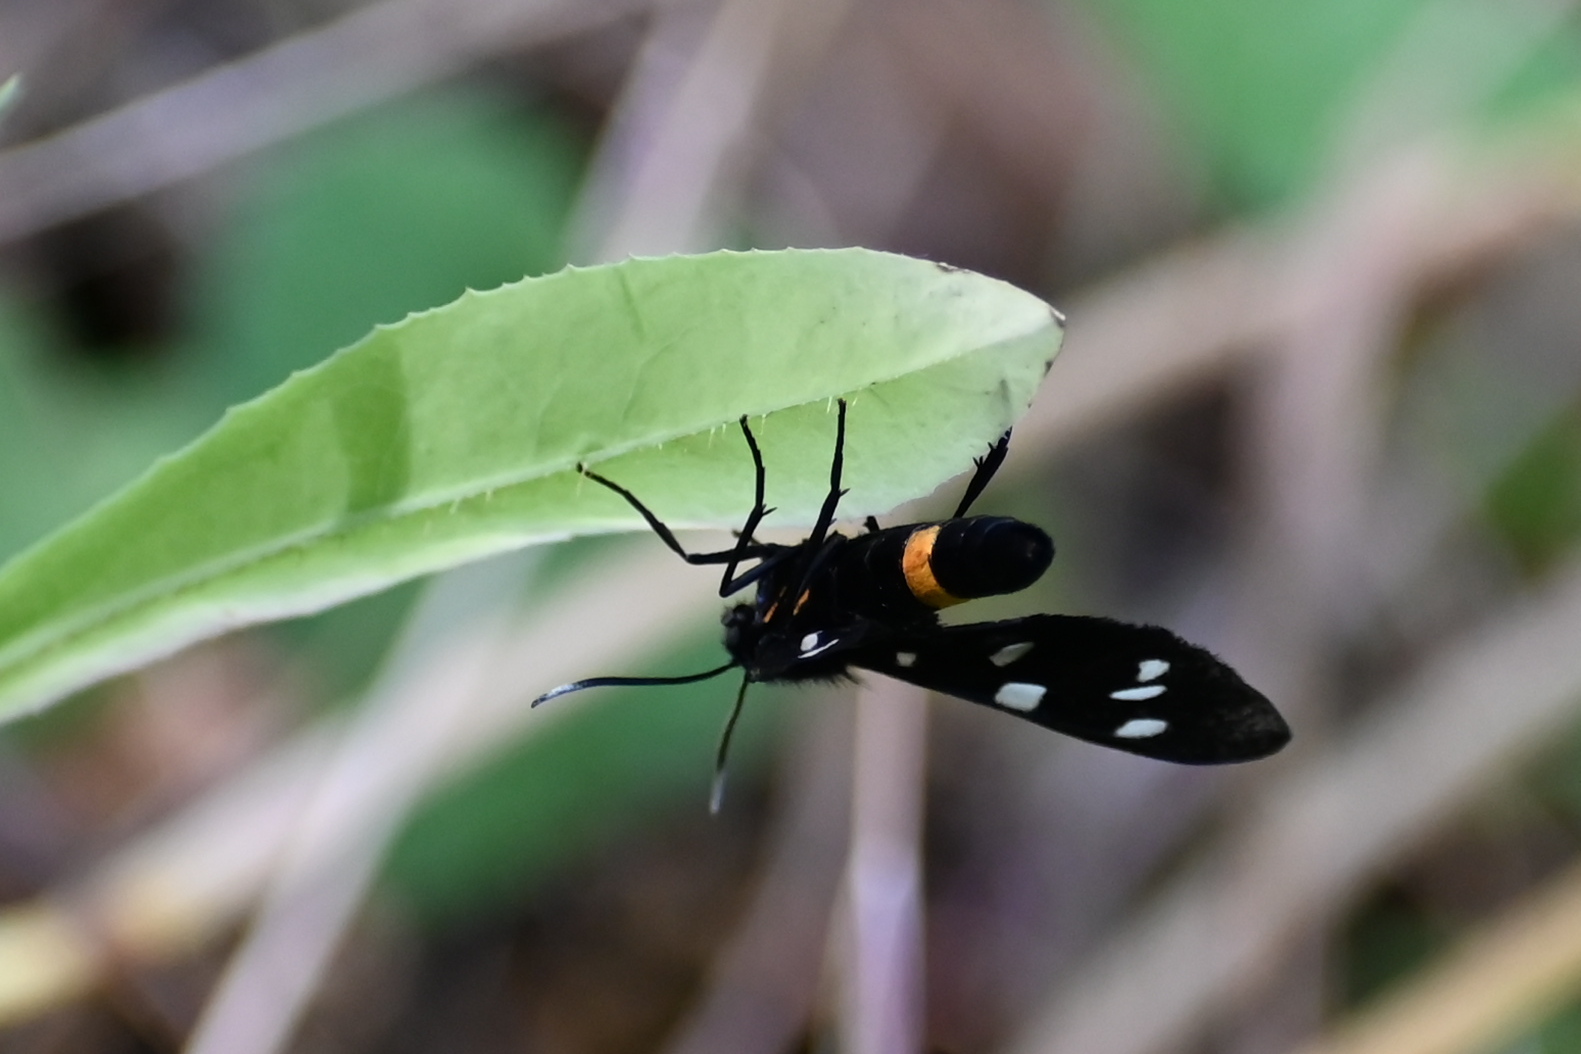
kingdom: Animalia
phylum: Arthropoda
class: Insecta
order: Lepidoptera
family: Erebidae
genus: Amata
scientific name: Amata phegea
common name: Nine-spotted
